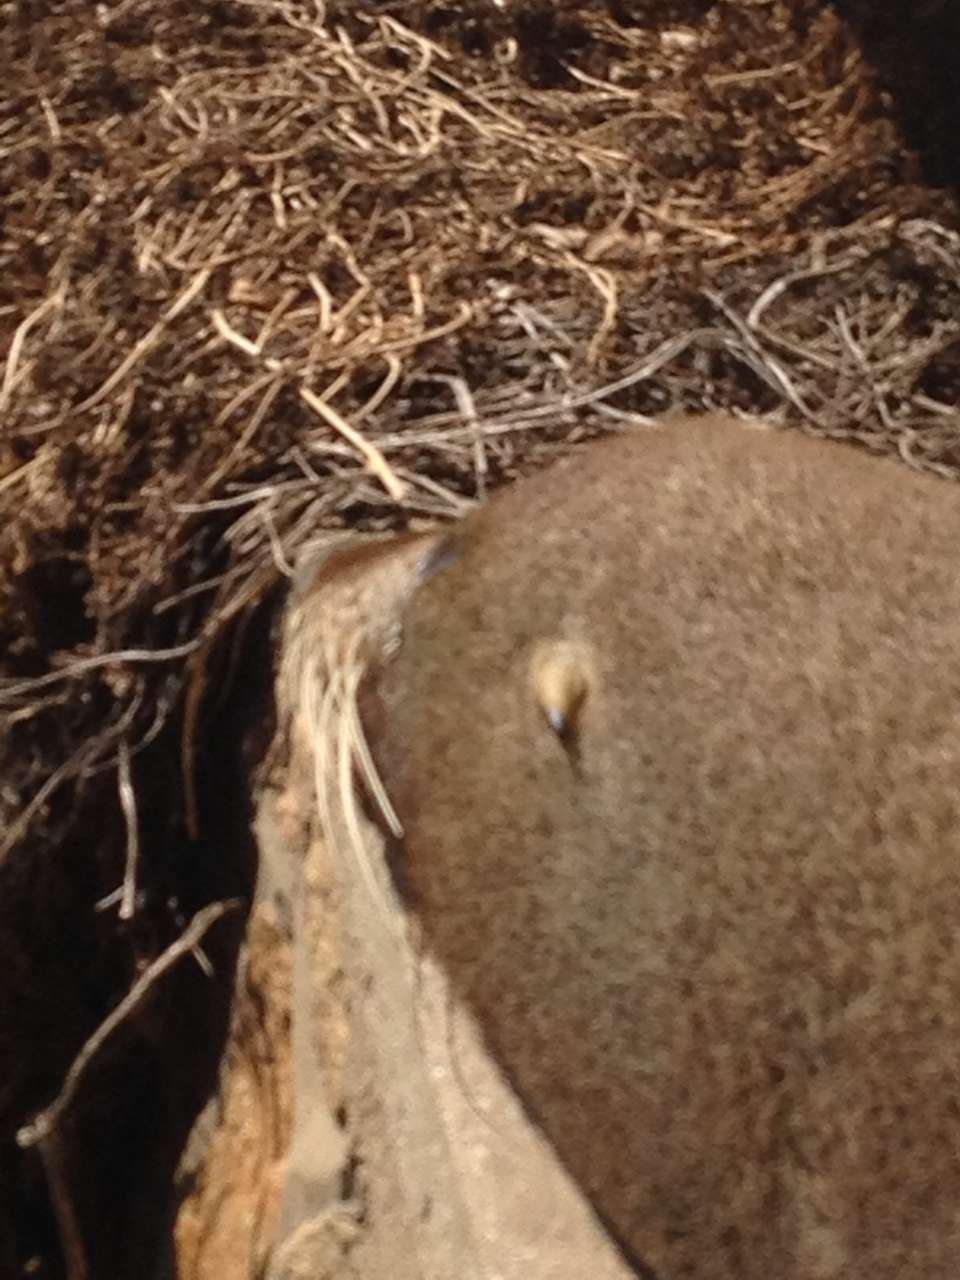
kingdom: Animalia
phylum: Chordata
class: Mammalia
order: Carnivora
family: Otariidae
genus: Arctocephalus
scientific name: Arctocephalus pusillus
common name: Brown fur seal
